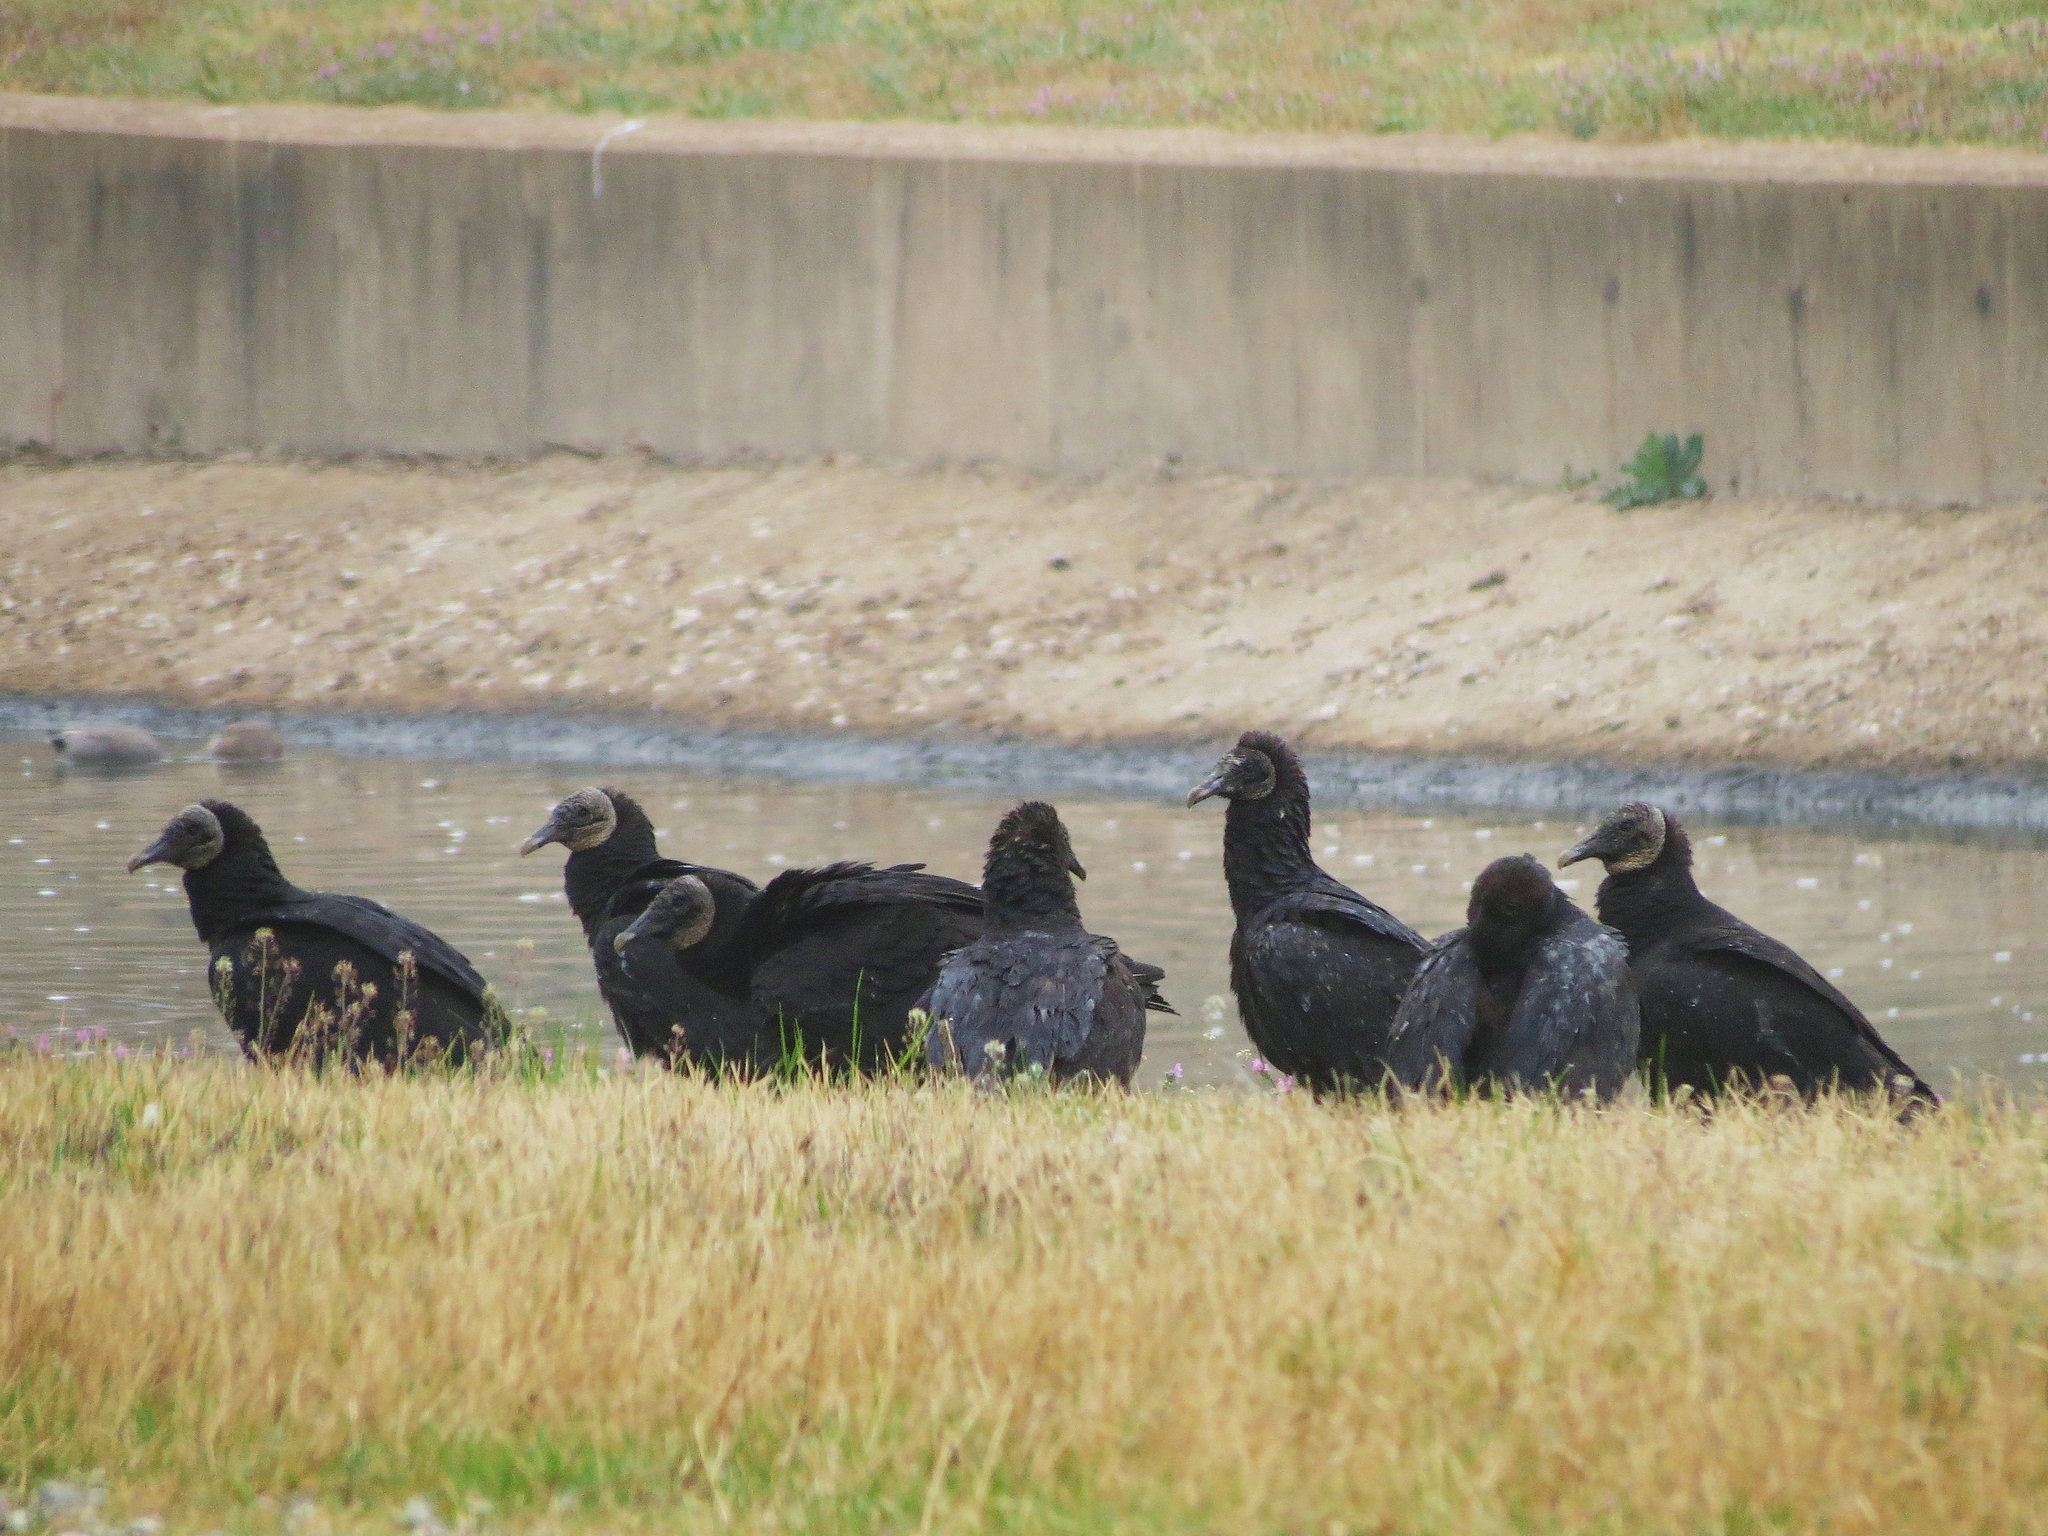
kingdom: Animalia
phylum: Chordata
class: Aves
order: Accipitriformes
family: Cathartidae
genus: Coragyps
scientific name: Coragyps atratus
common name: Black vulture
